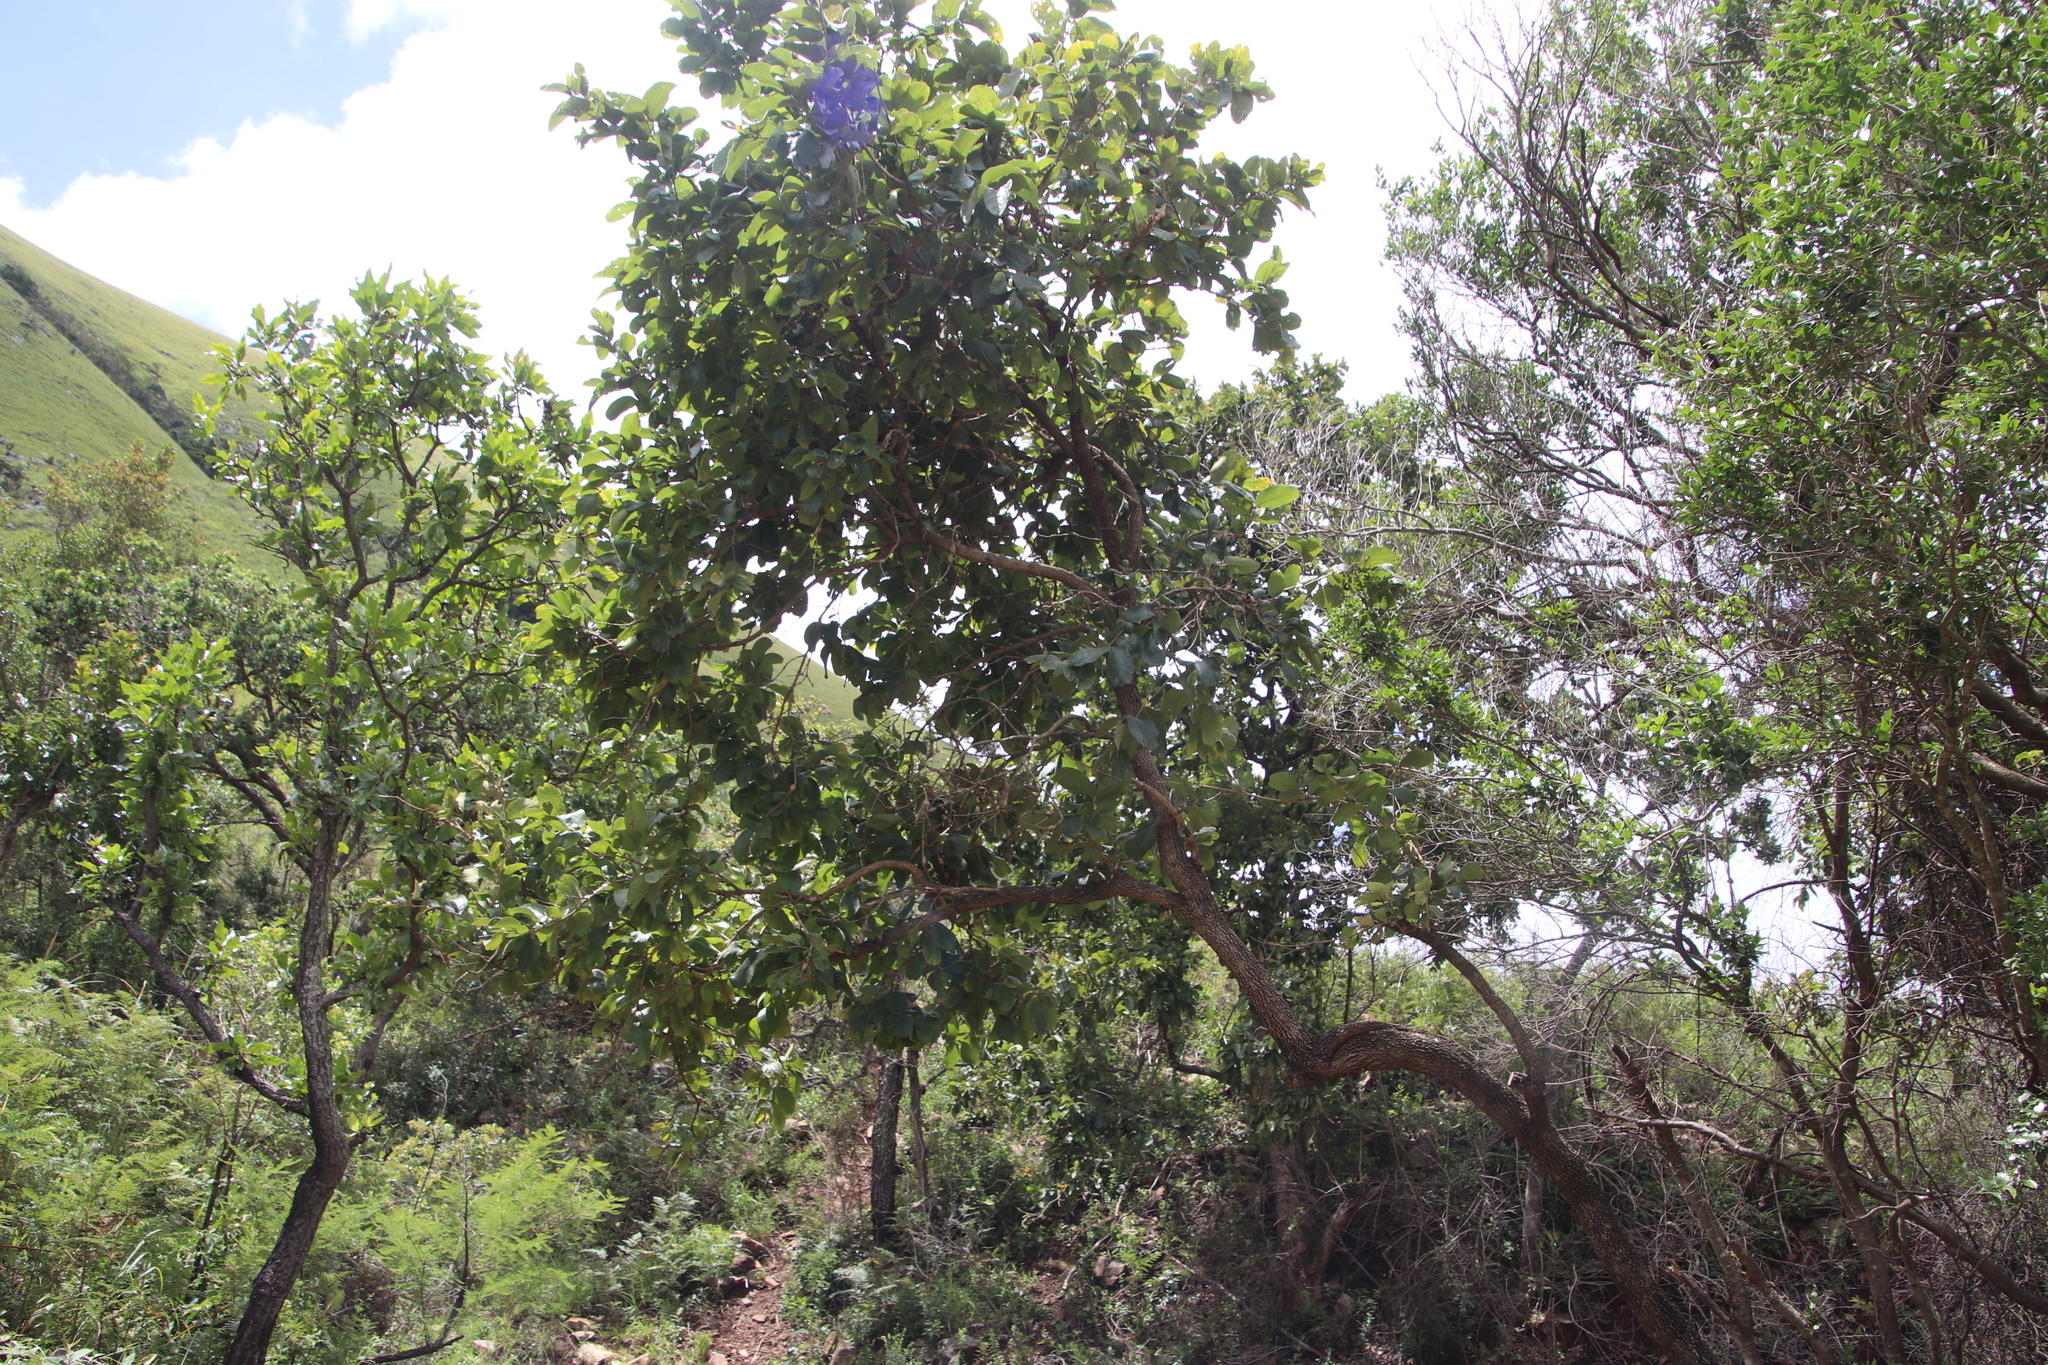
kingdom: Plantae
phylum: Tracheophyta
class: Magnoliopsida
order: Myrtales
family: Combretaceae
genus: Combretum
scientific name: Combretum molle
